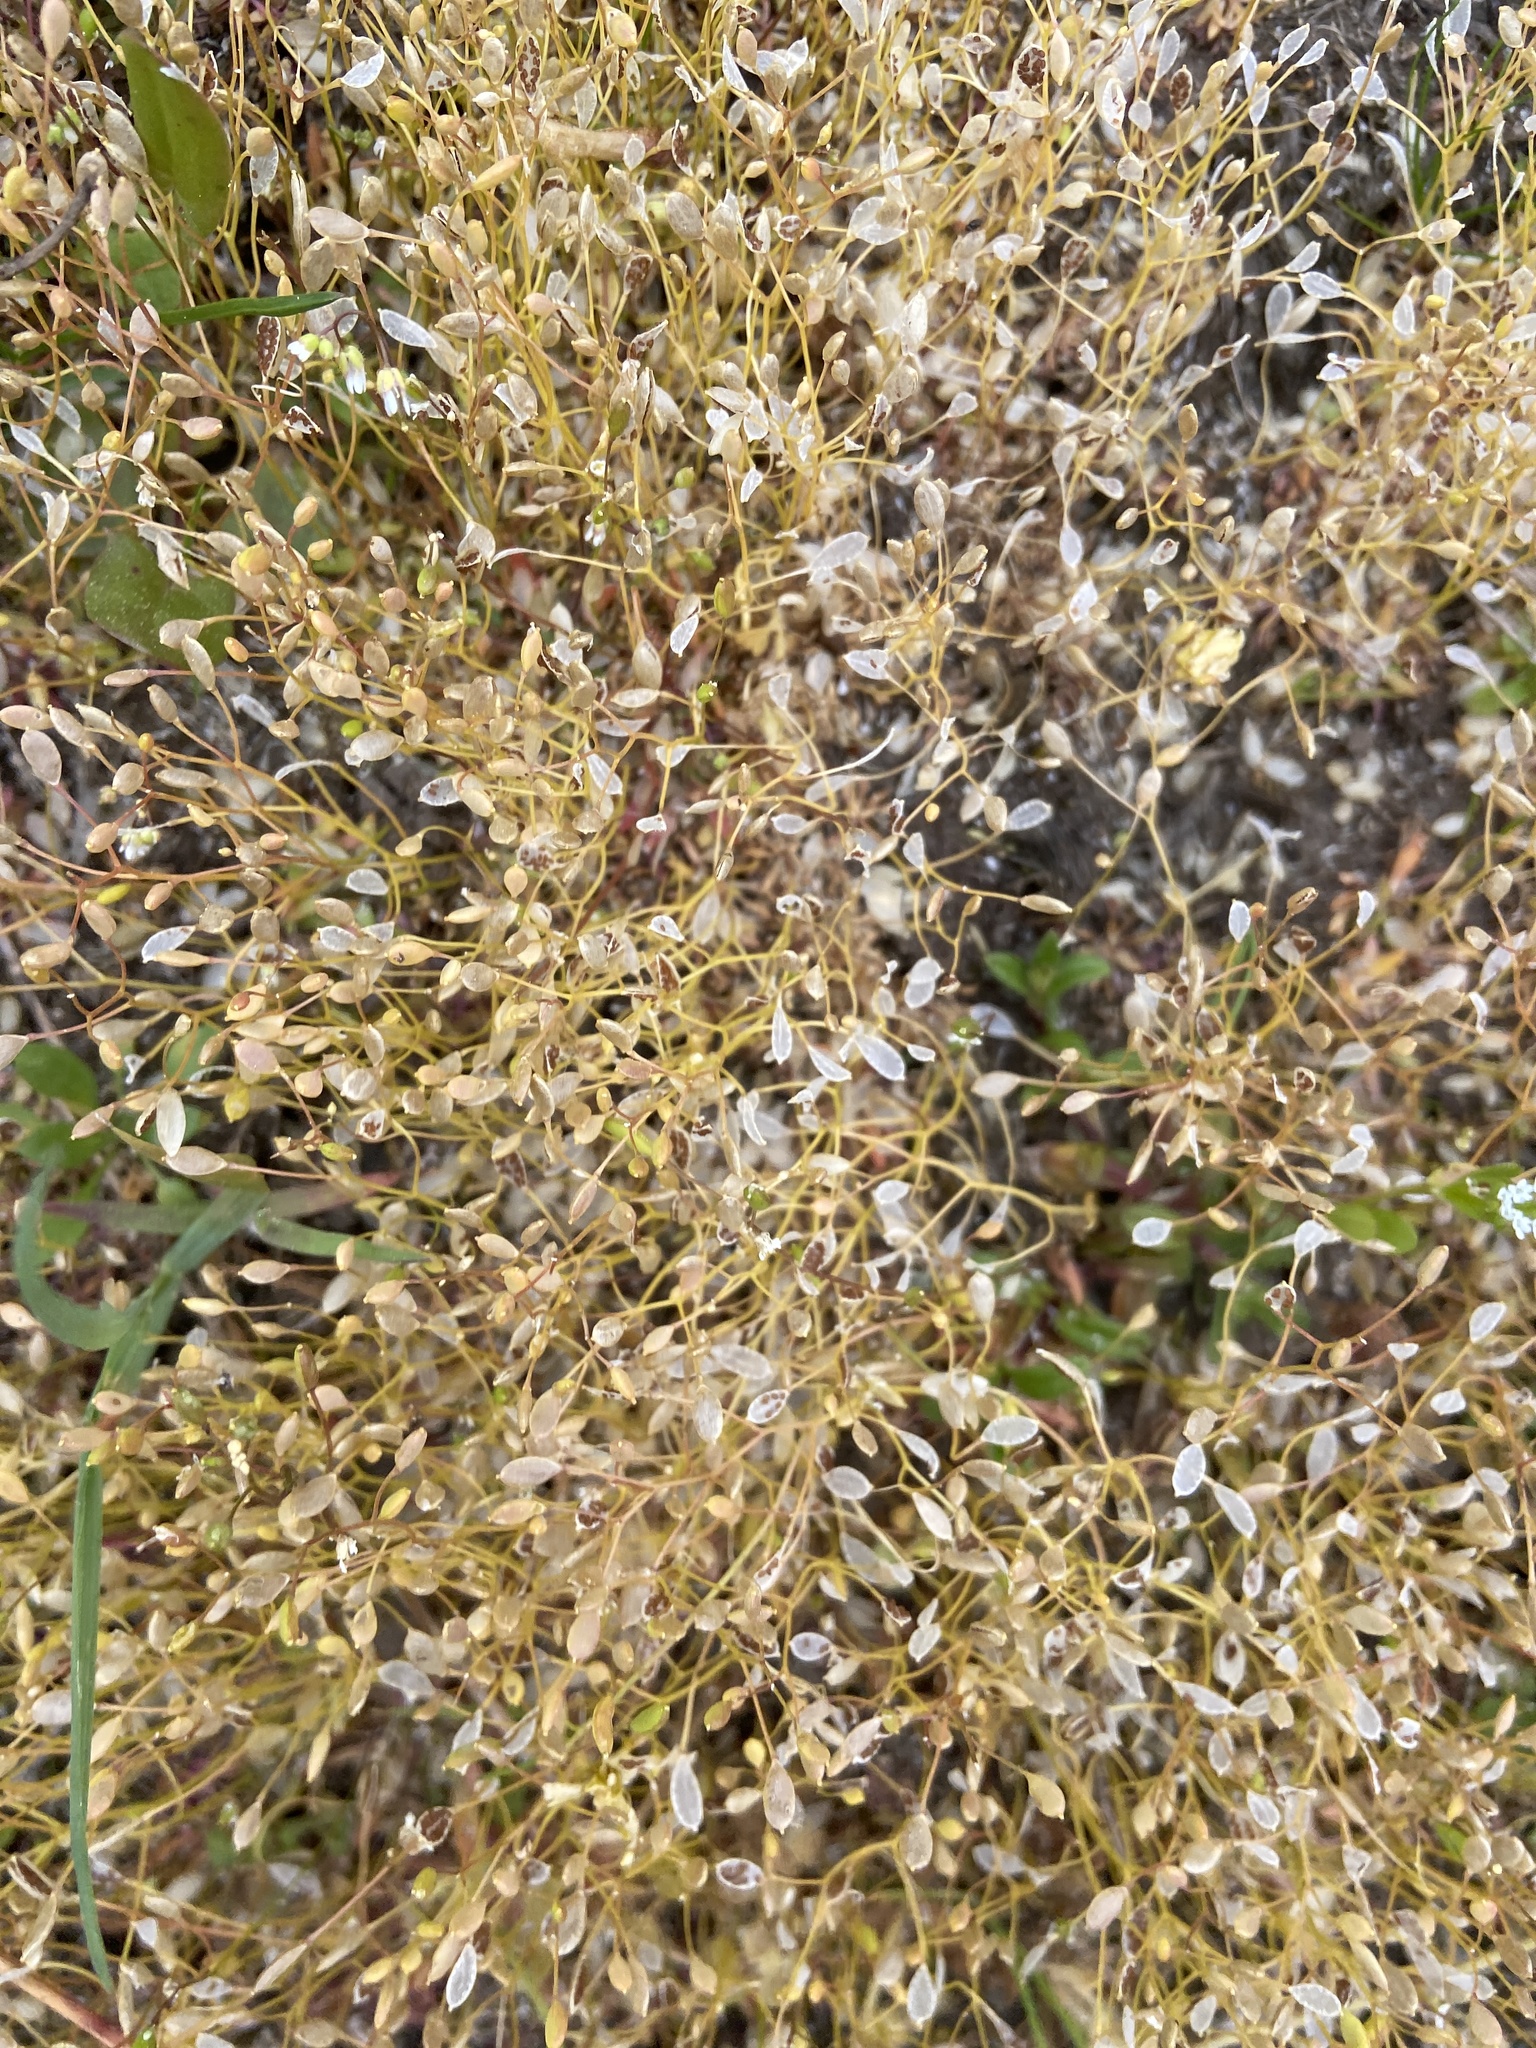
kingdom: Plantae
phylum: Tracheophyta
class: Magnoliopsida
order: Brassicales
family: Brassicaceae
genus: Draba
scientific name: Draba verna
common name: Spring draba
